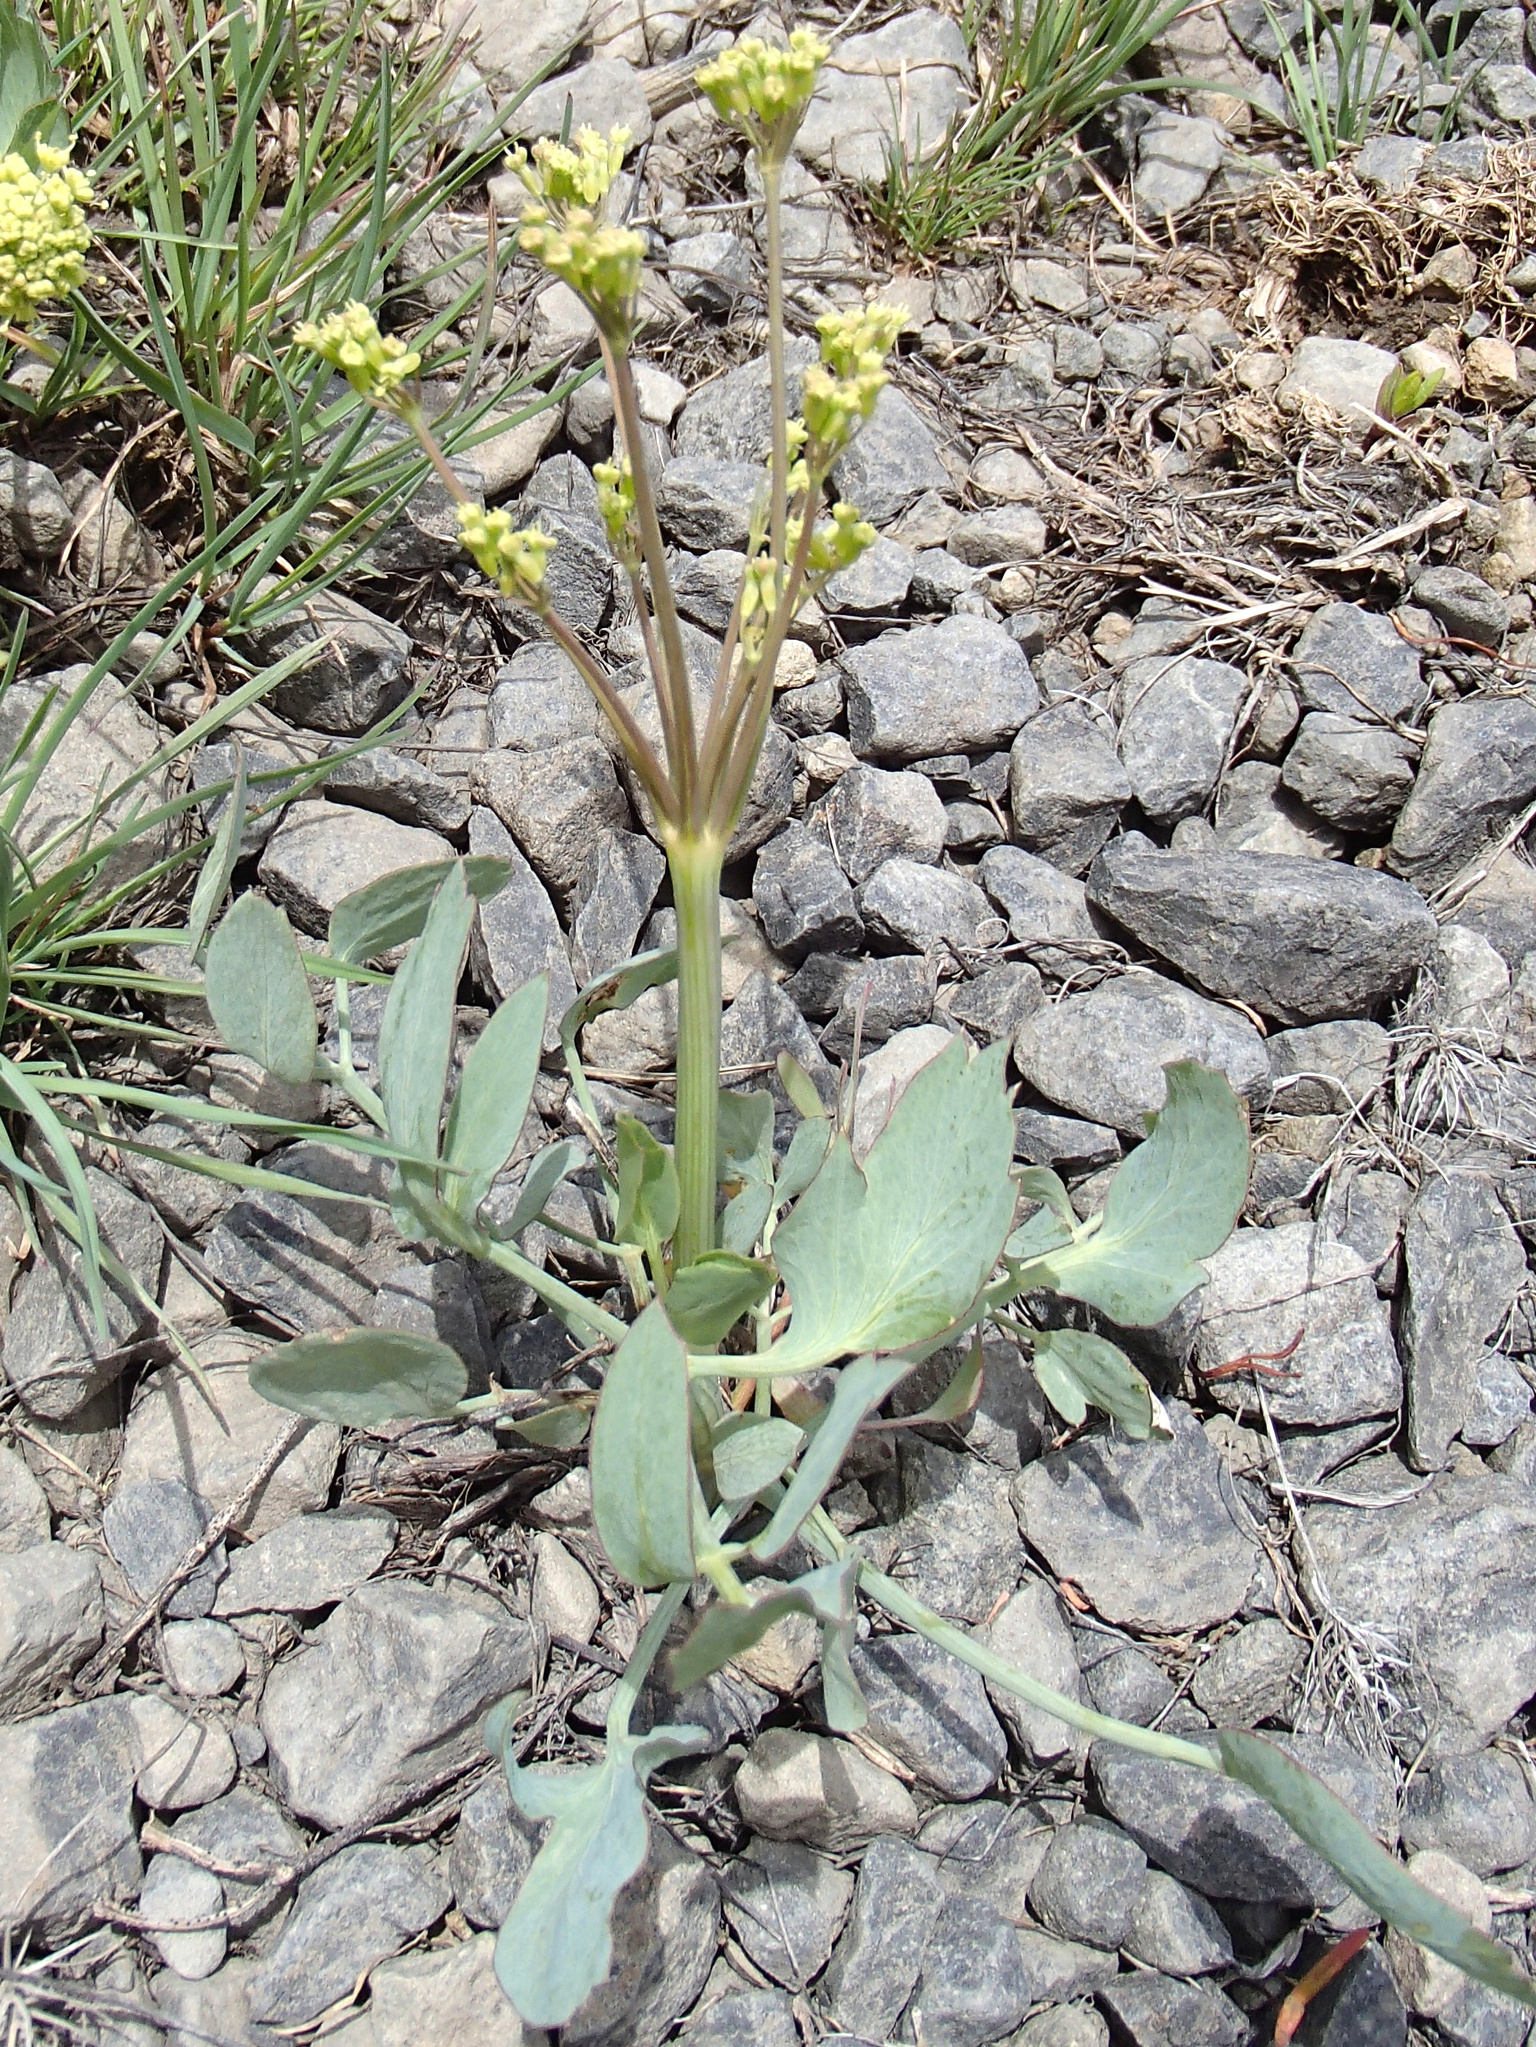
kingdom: Plantae
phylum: Tracheophyta
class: Magnoliopsida
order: Apiales
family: Apiaceae
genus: Lomatium
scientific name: Lomatium nudicaule
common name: Pestle lomatium
